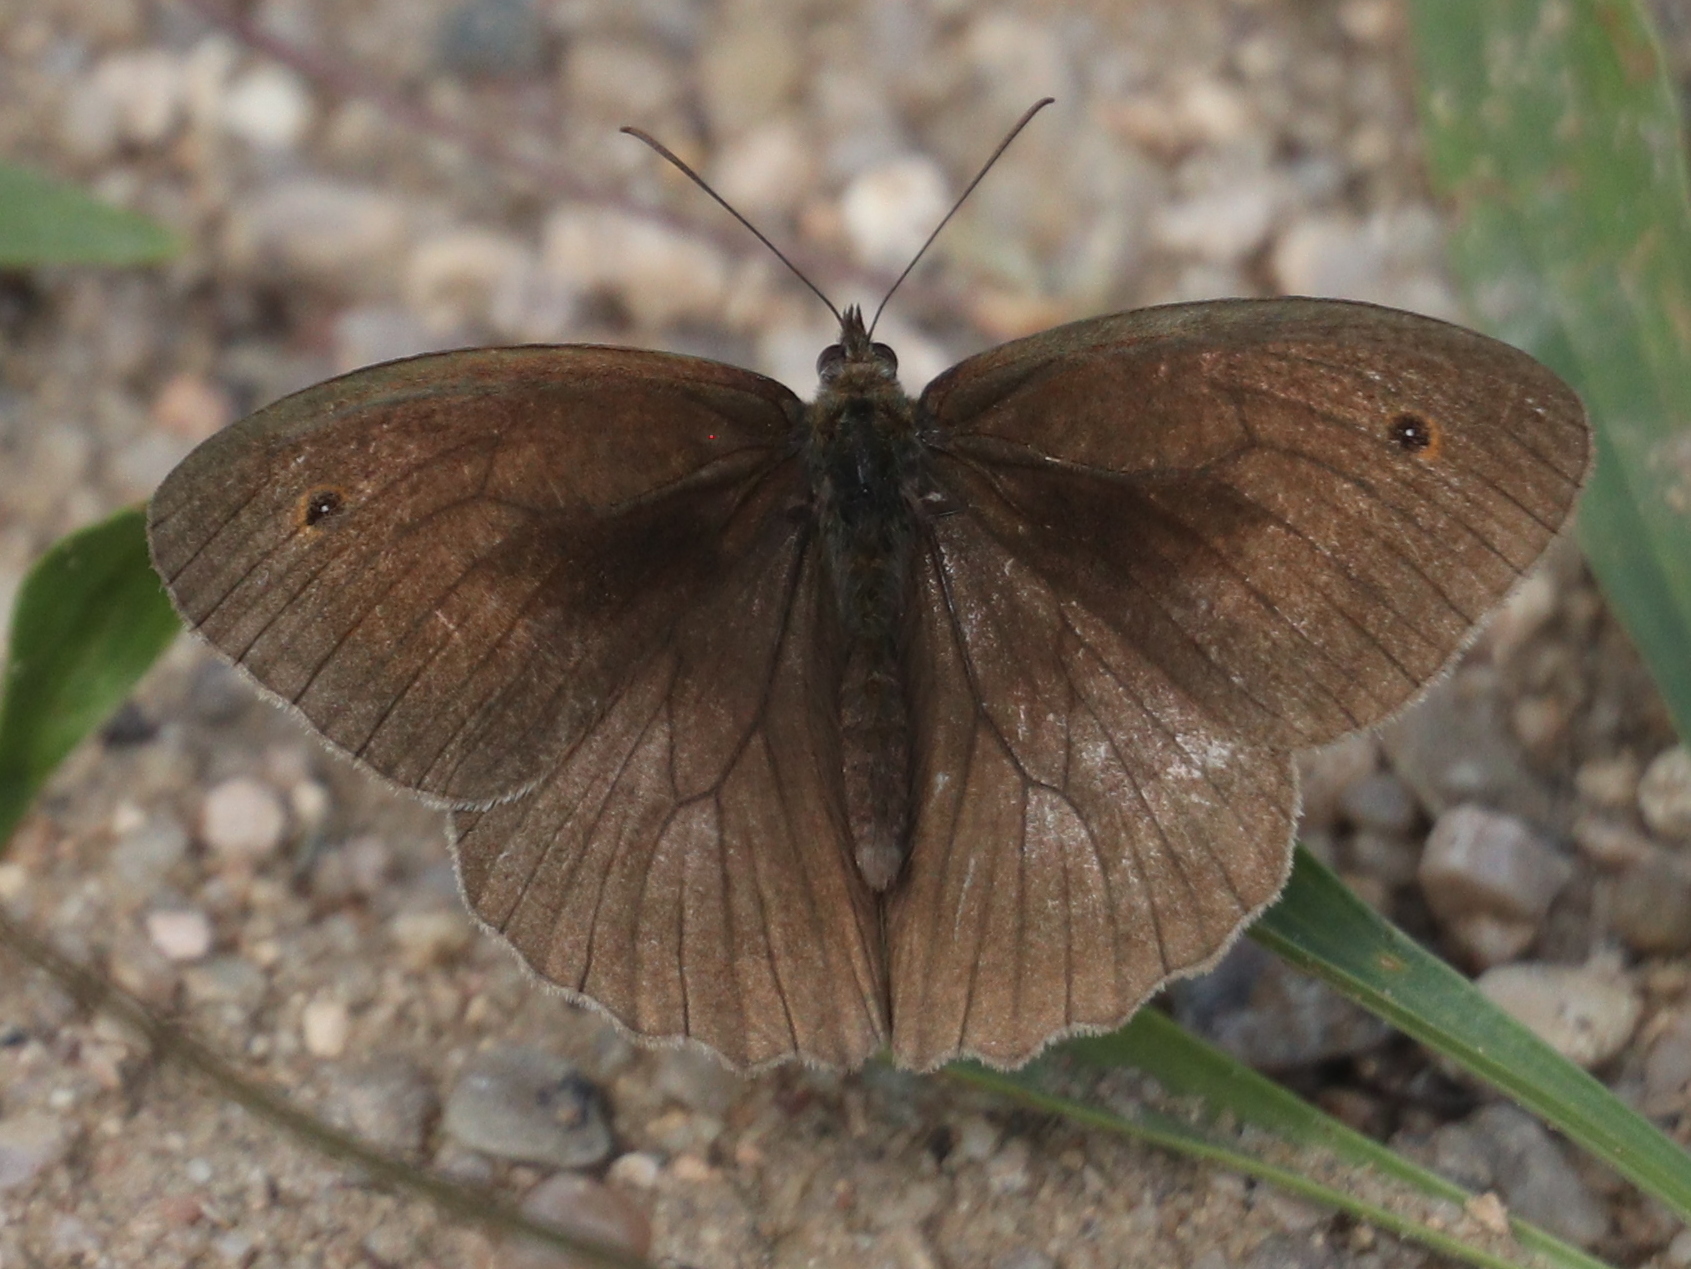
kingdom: Animalia
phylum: Arthropoda
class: Insecta
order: Lepidoptera
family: Nymphalidae
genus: Maniola
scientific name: Maniola jurtina
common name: Meadow brown
